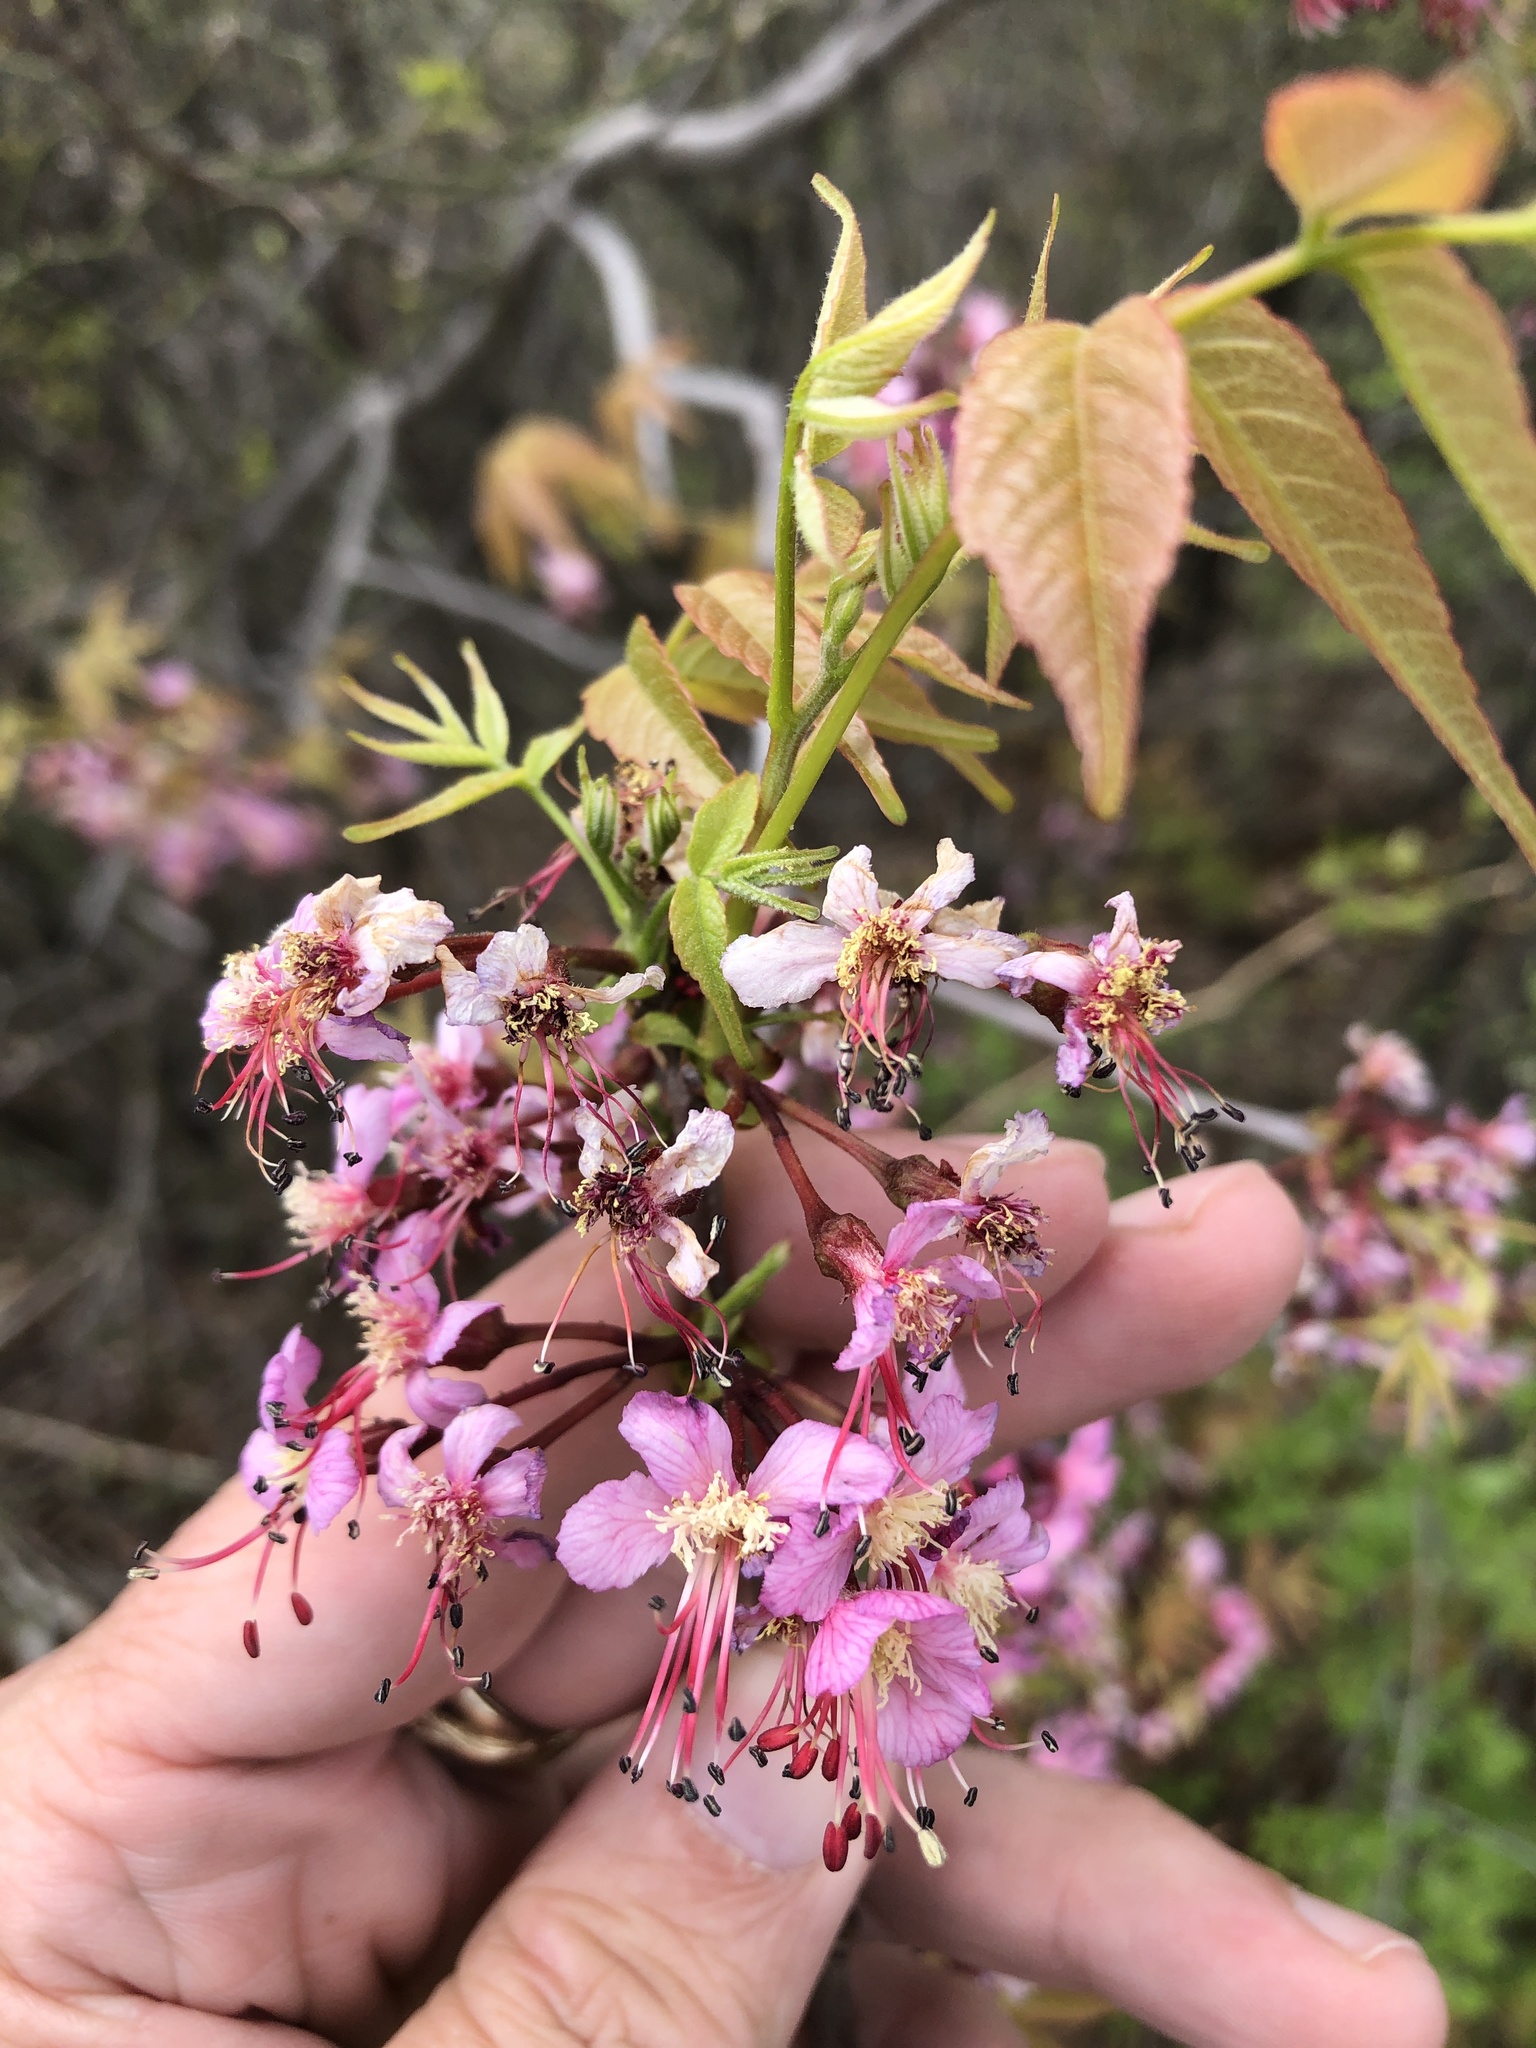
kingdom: Plantae
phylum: Tracheophyta
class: Magnoliopsida
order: Sapindales
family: Sapindaceae
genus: Ungnadia
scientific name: Ungnadia speciosa
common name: Texas-buckeye
